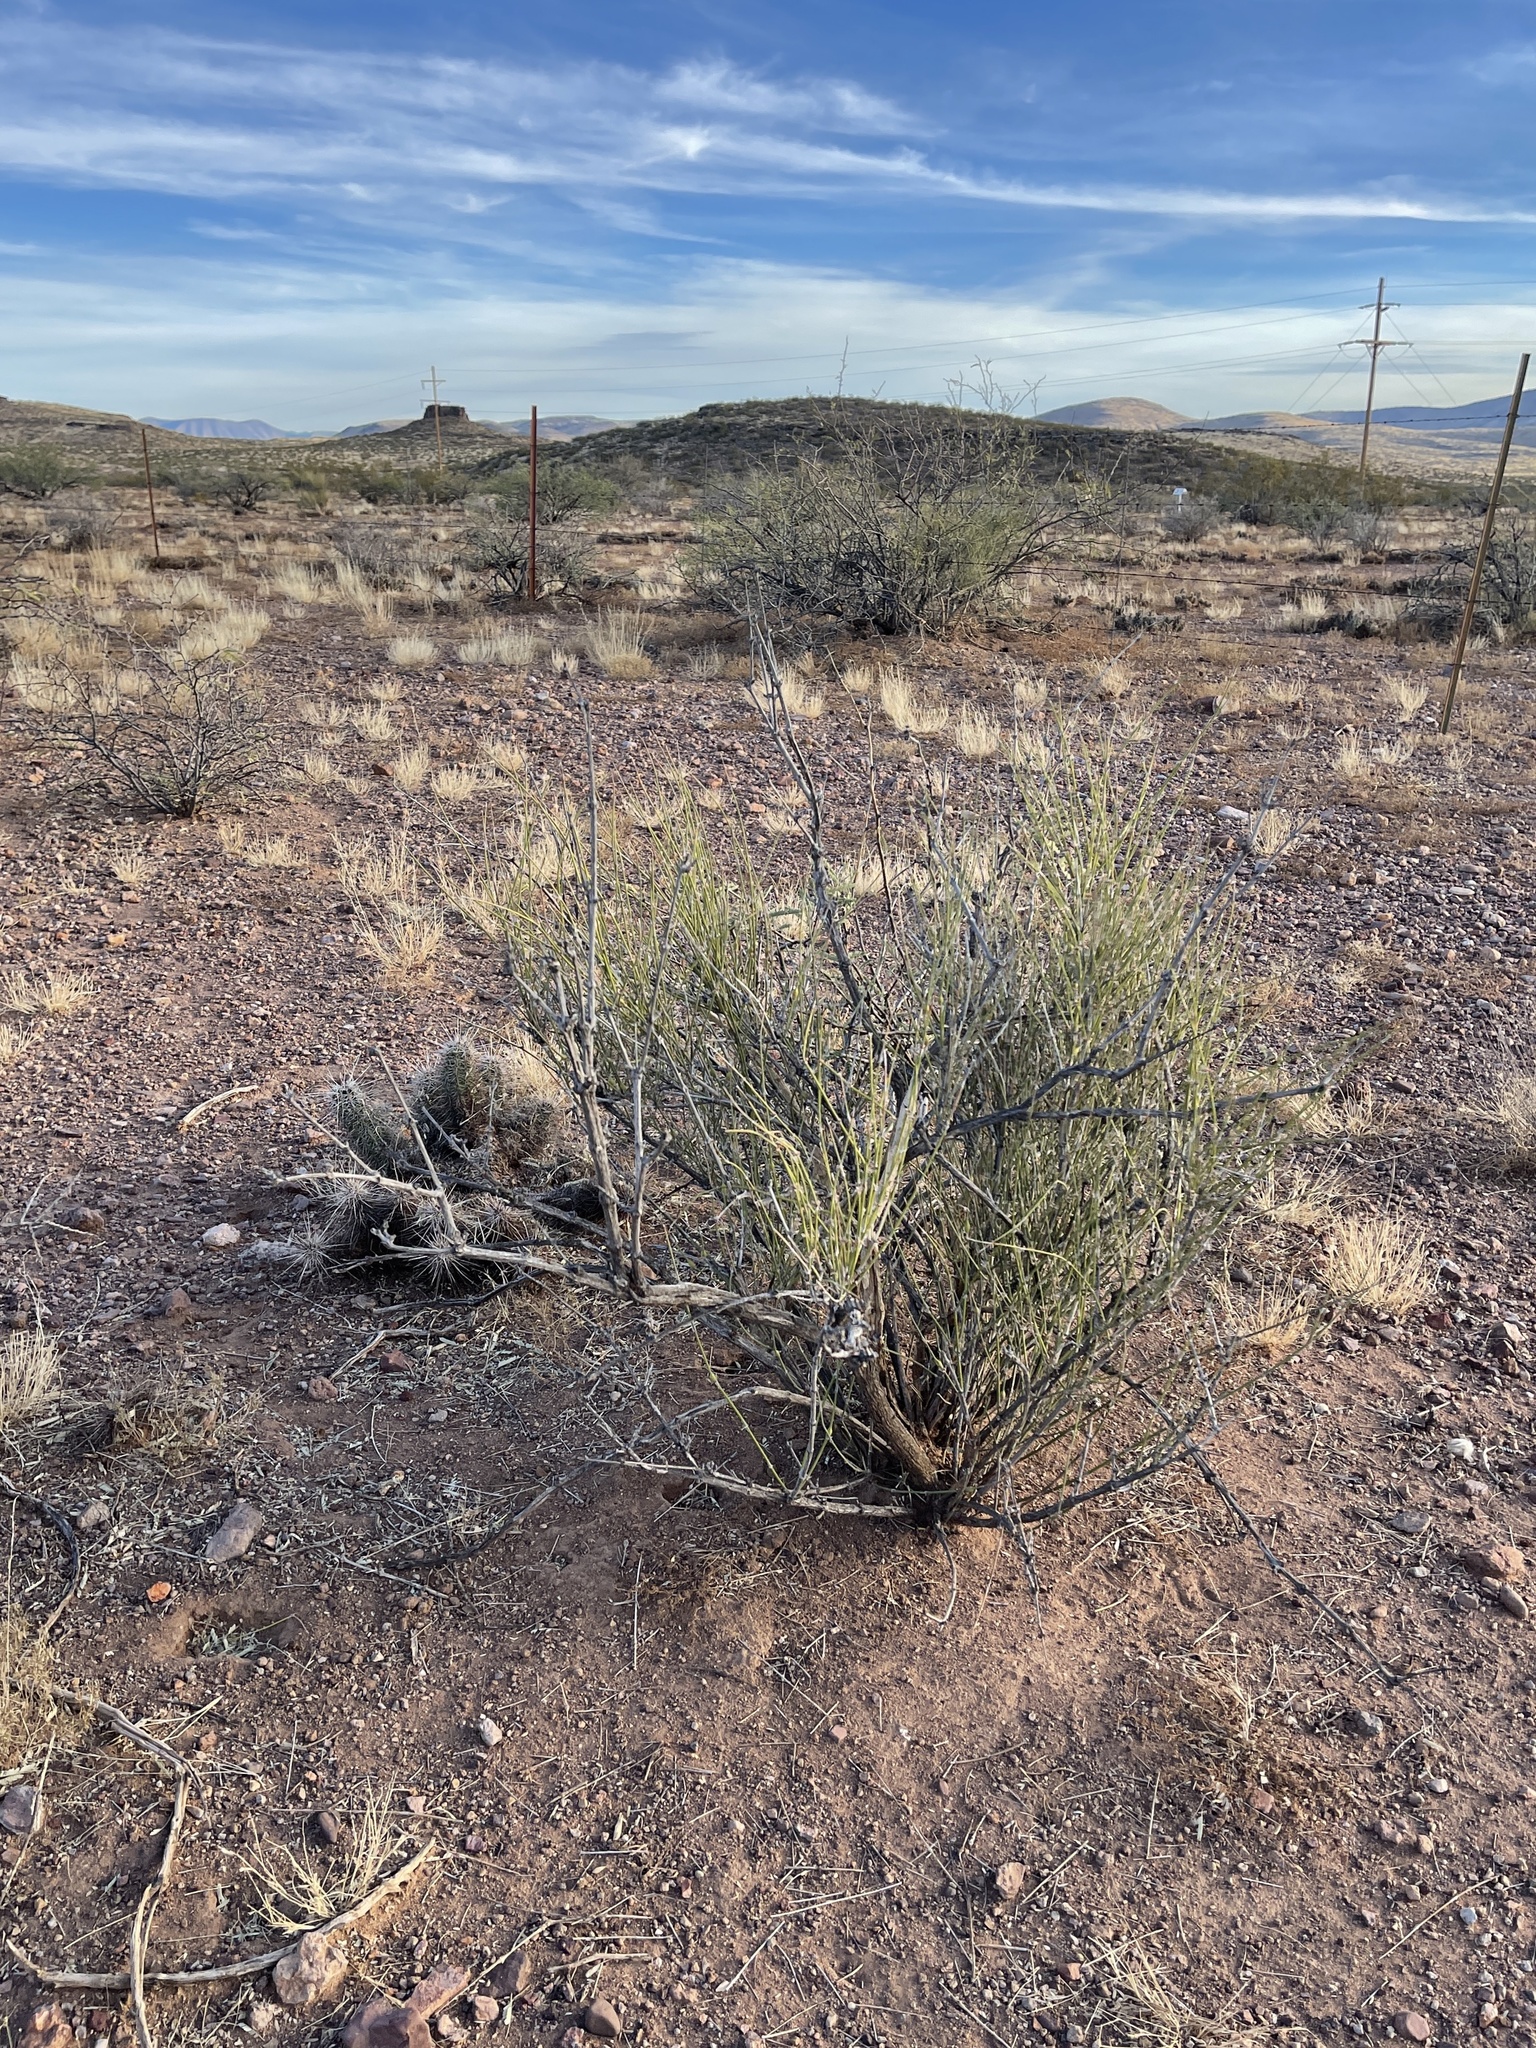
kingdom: Plantae
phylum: Tracheophyta
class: Gnetopsida
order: Ephedrales
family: Ephedraceae
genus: Ephedra
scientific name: Ephedra trifurca
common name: Mexican-tea
